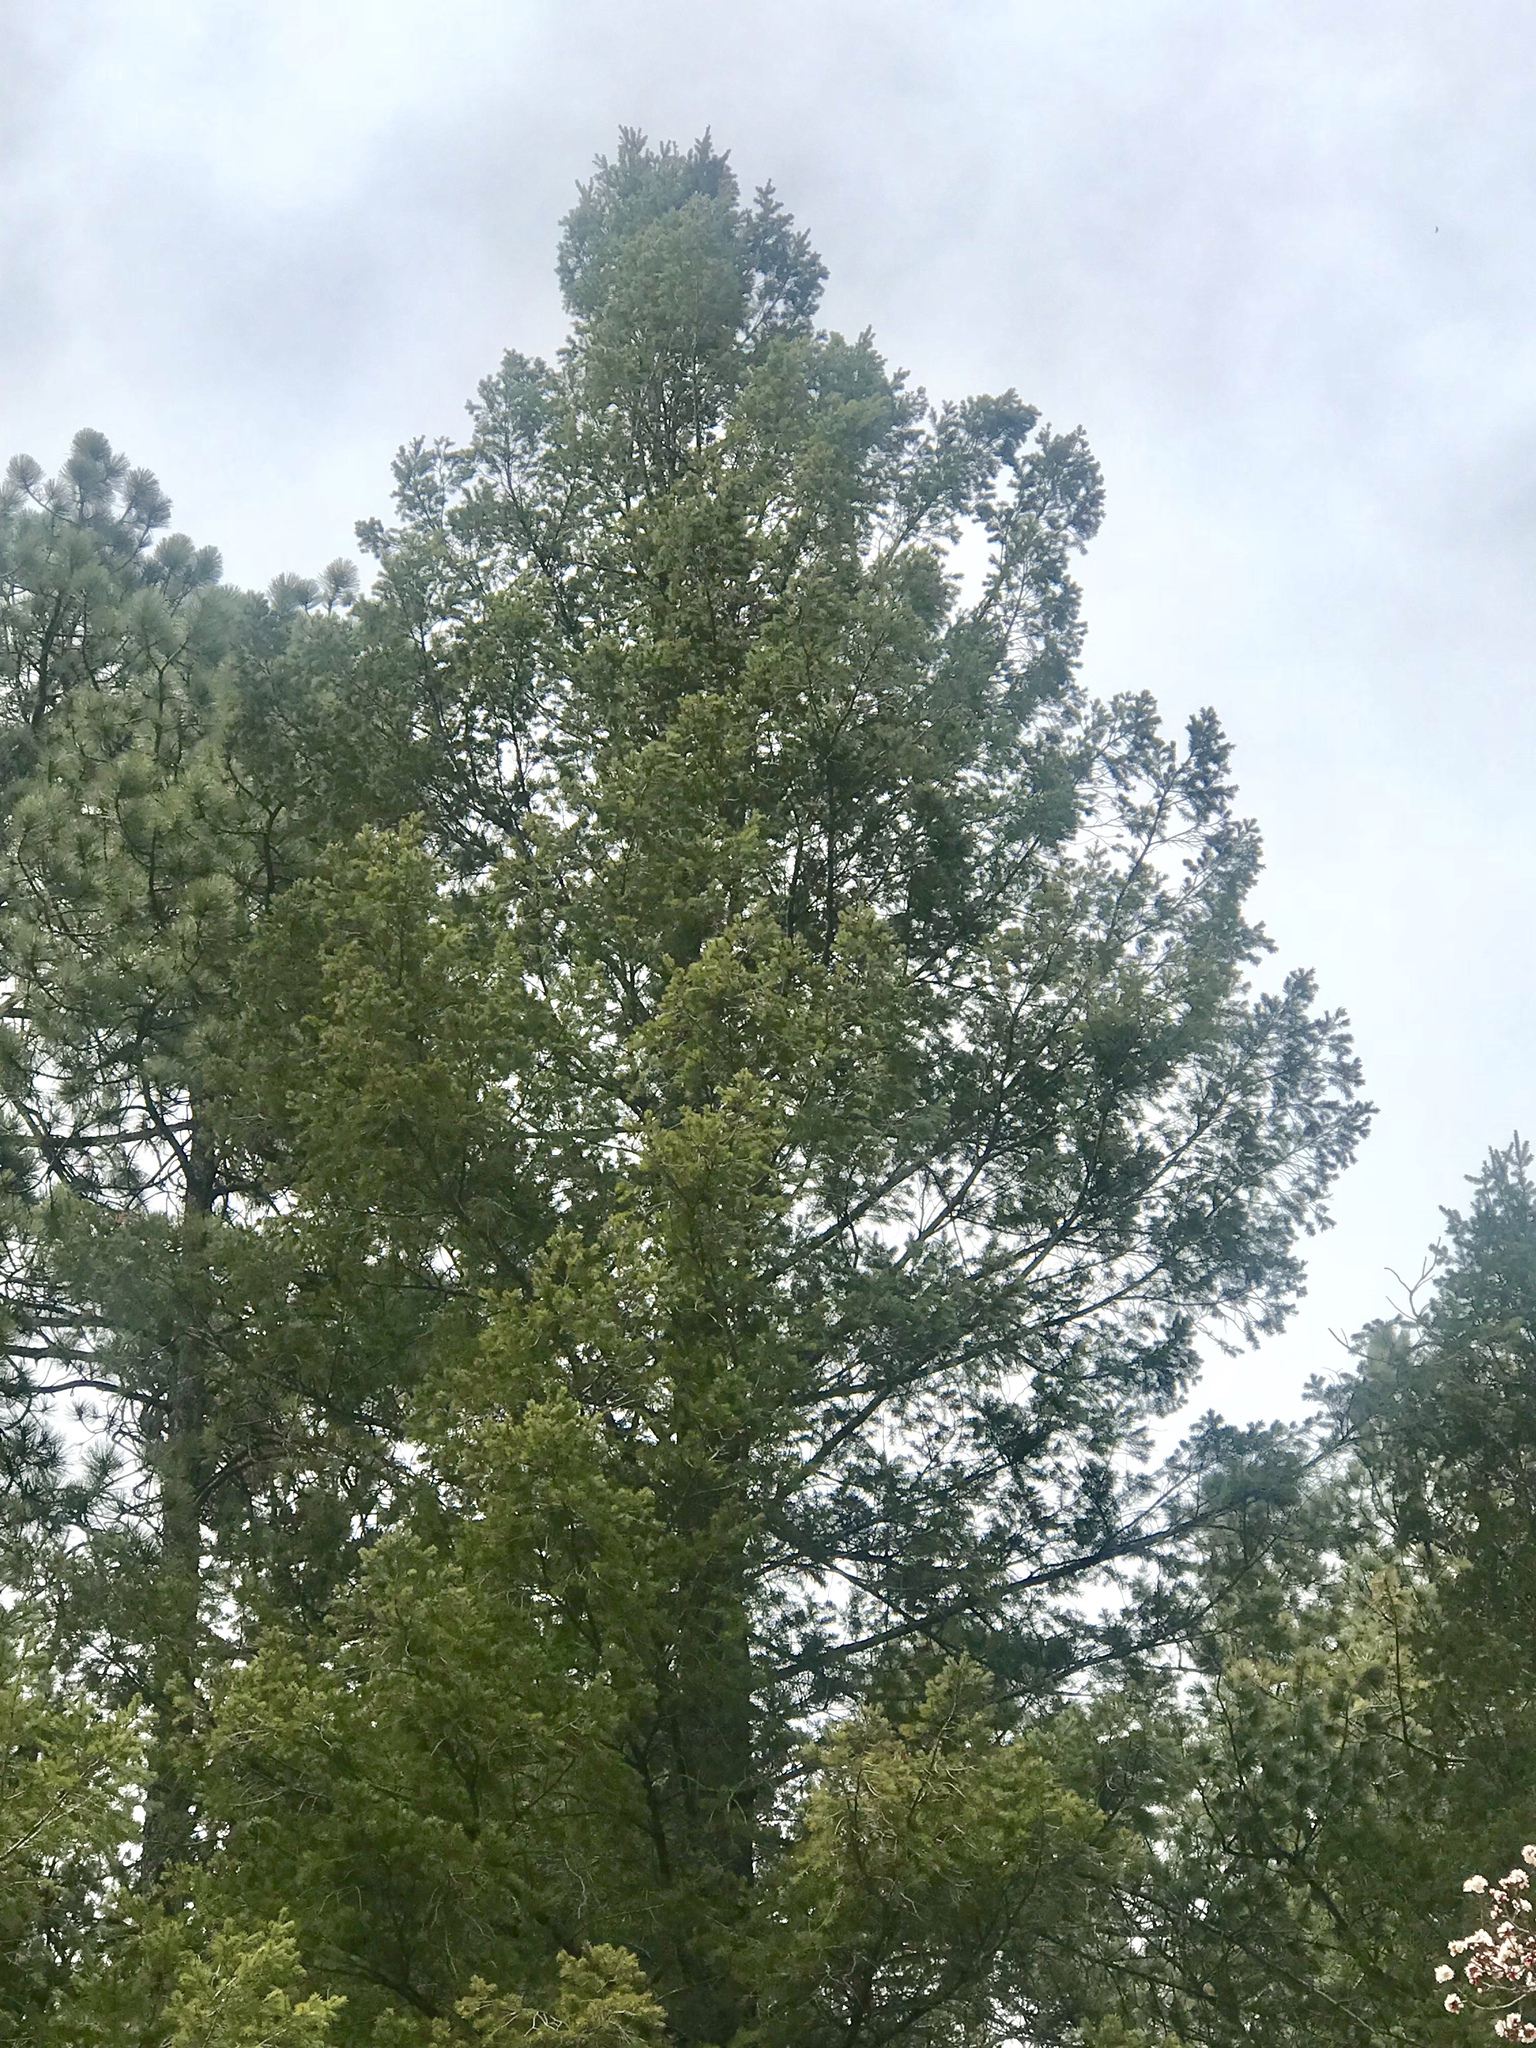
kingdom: Plantae
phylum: Tracheophyta
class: Pinopsida
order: Pinales
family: Pinaceae
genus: Pseudotsuga
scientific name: Pseudotsuga menziesii
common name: Douglas fir
